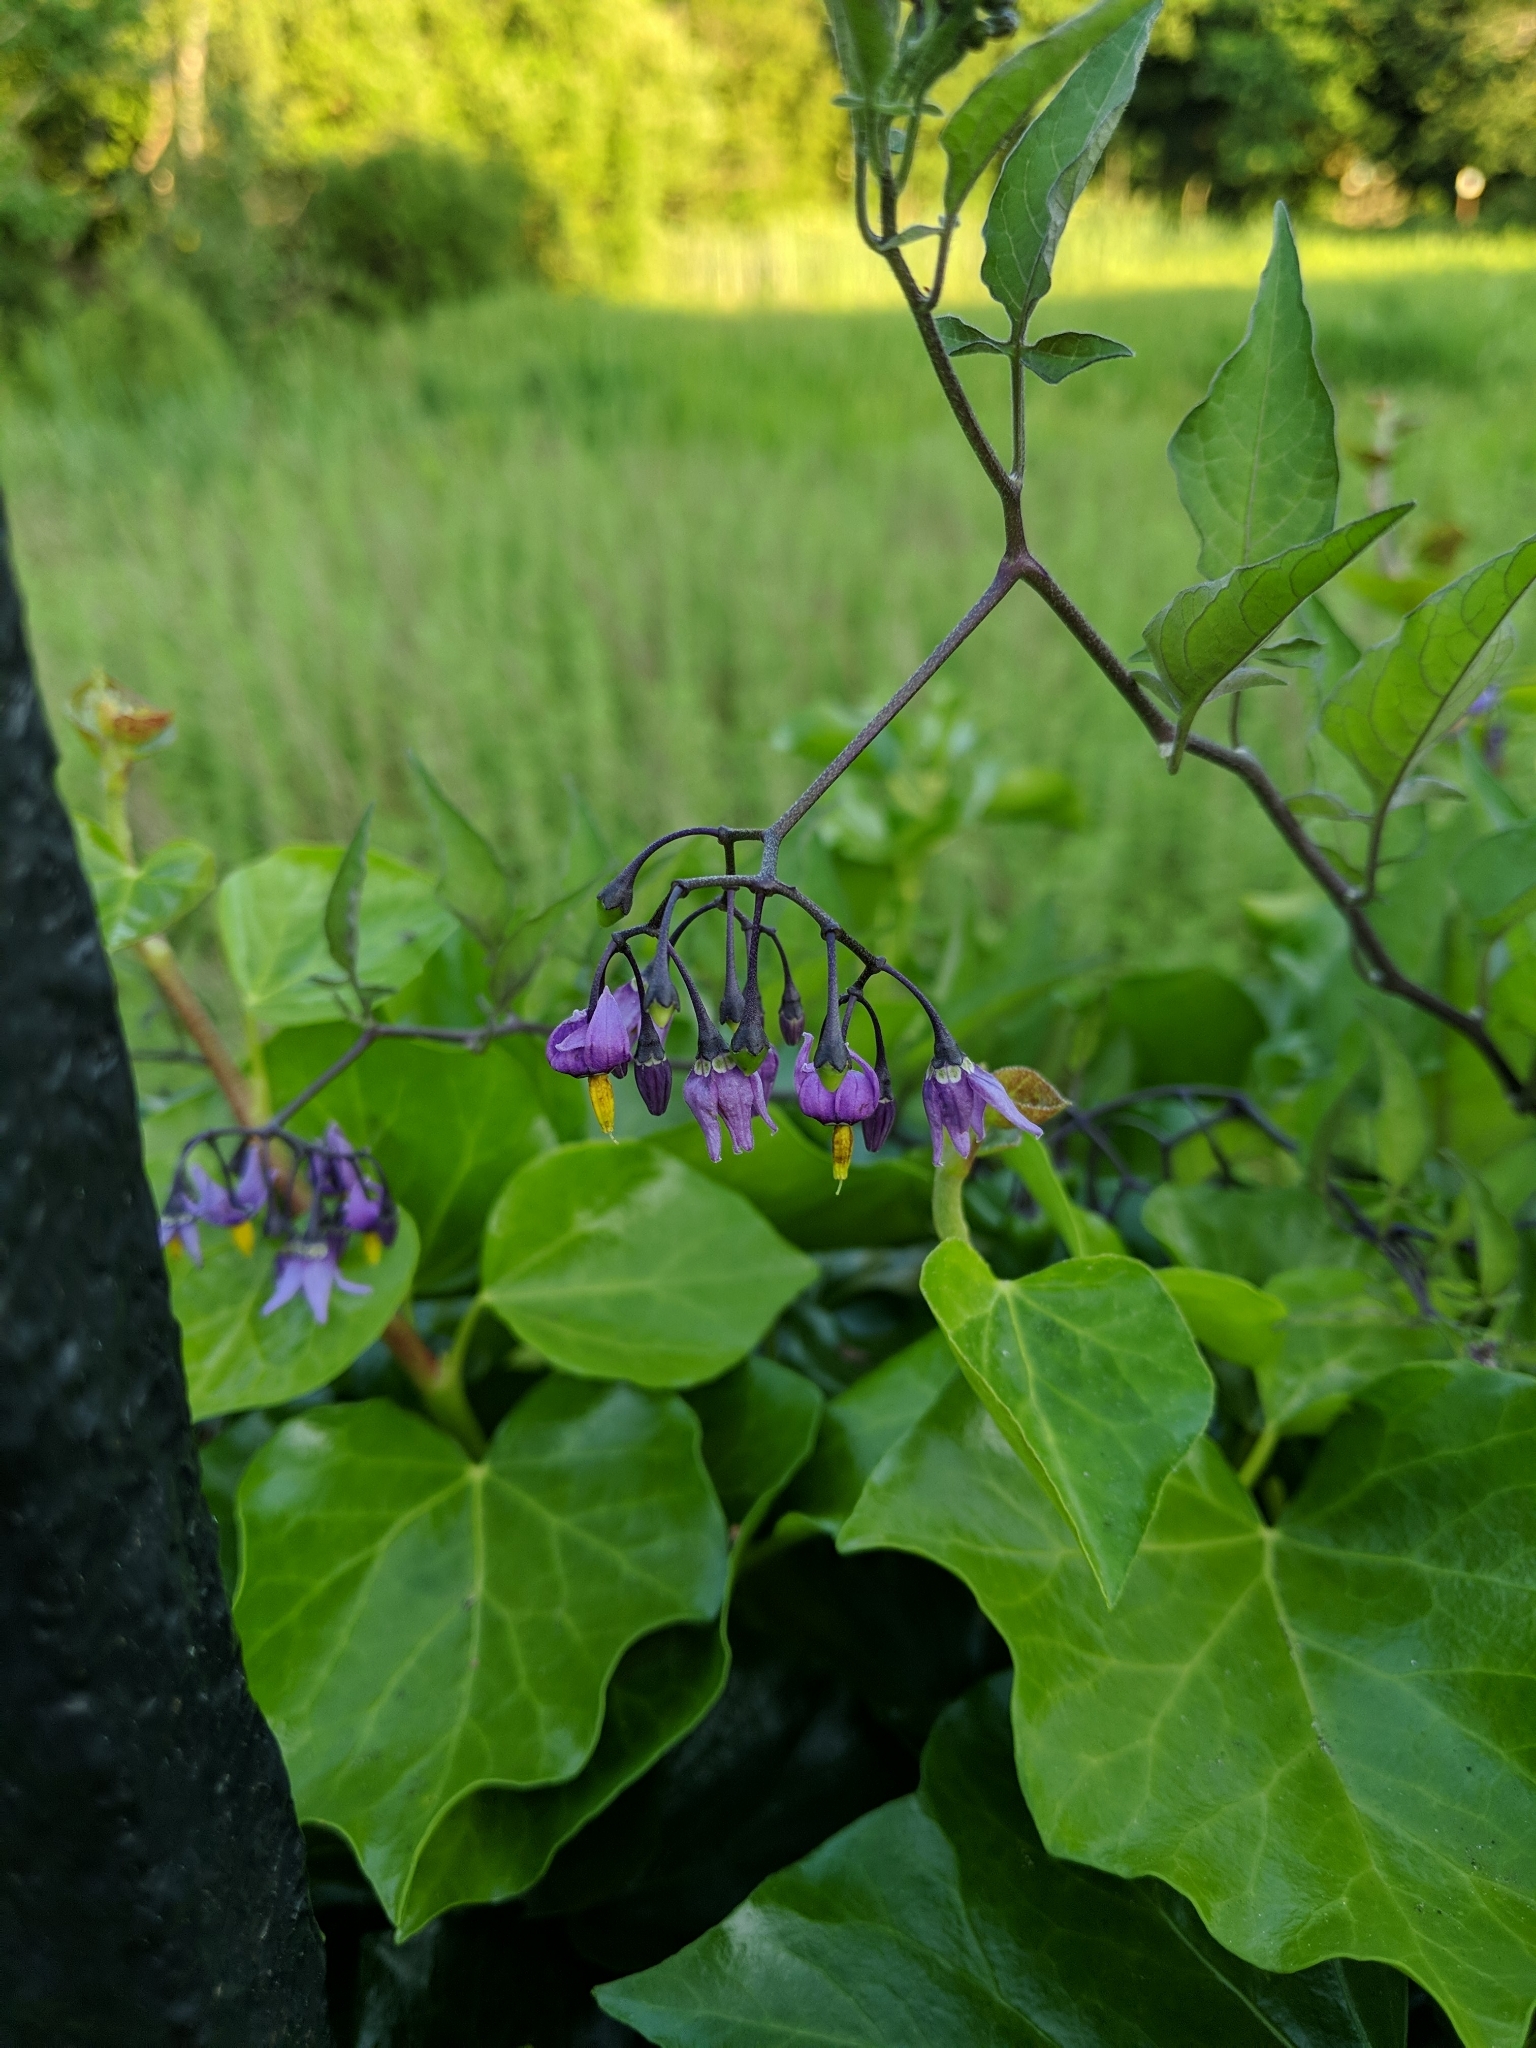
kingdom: Plantae
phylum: Tracheophyta
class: Magnoliopsida
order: Solanales
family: Solanaceae
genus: Solanum
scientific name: Solanum dulcamara
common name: Climbing nightshade
